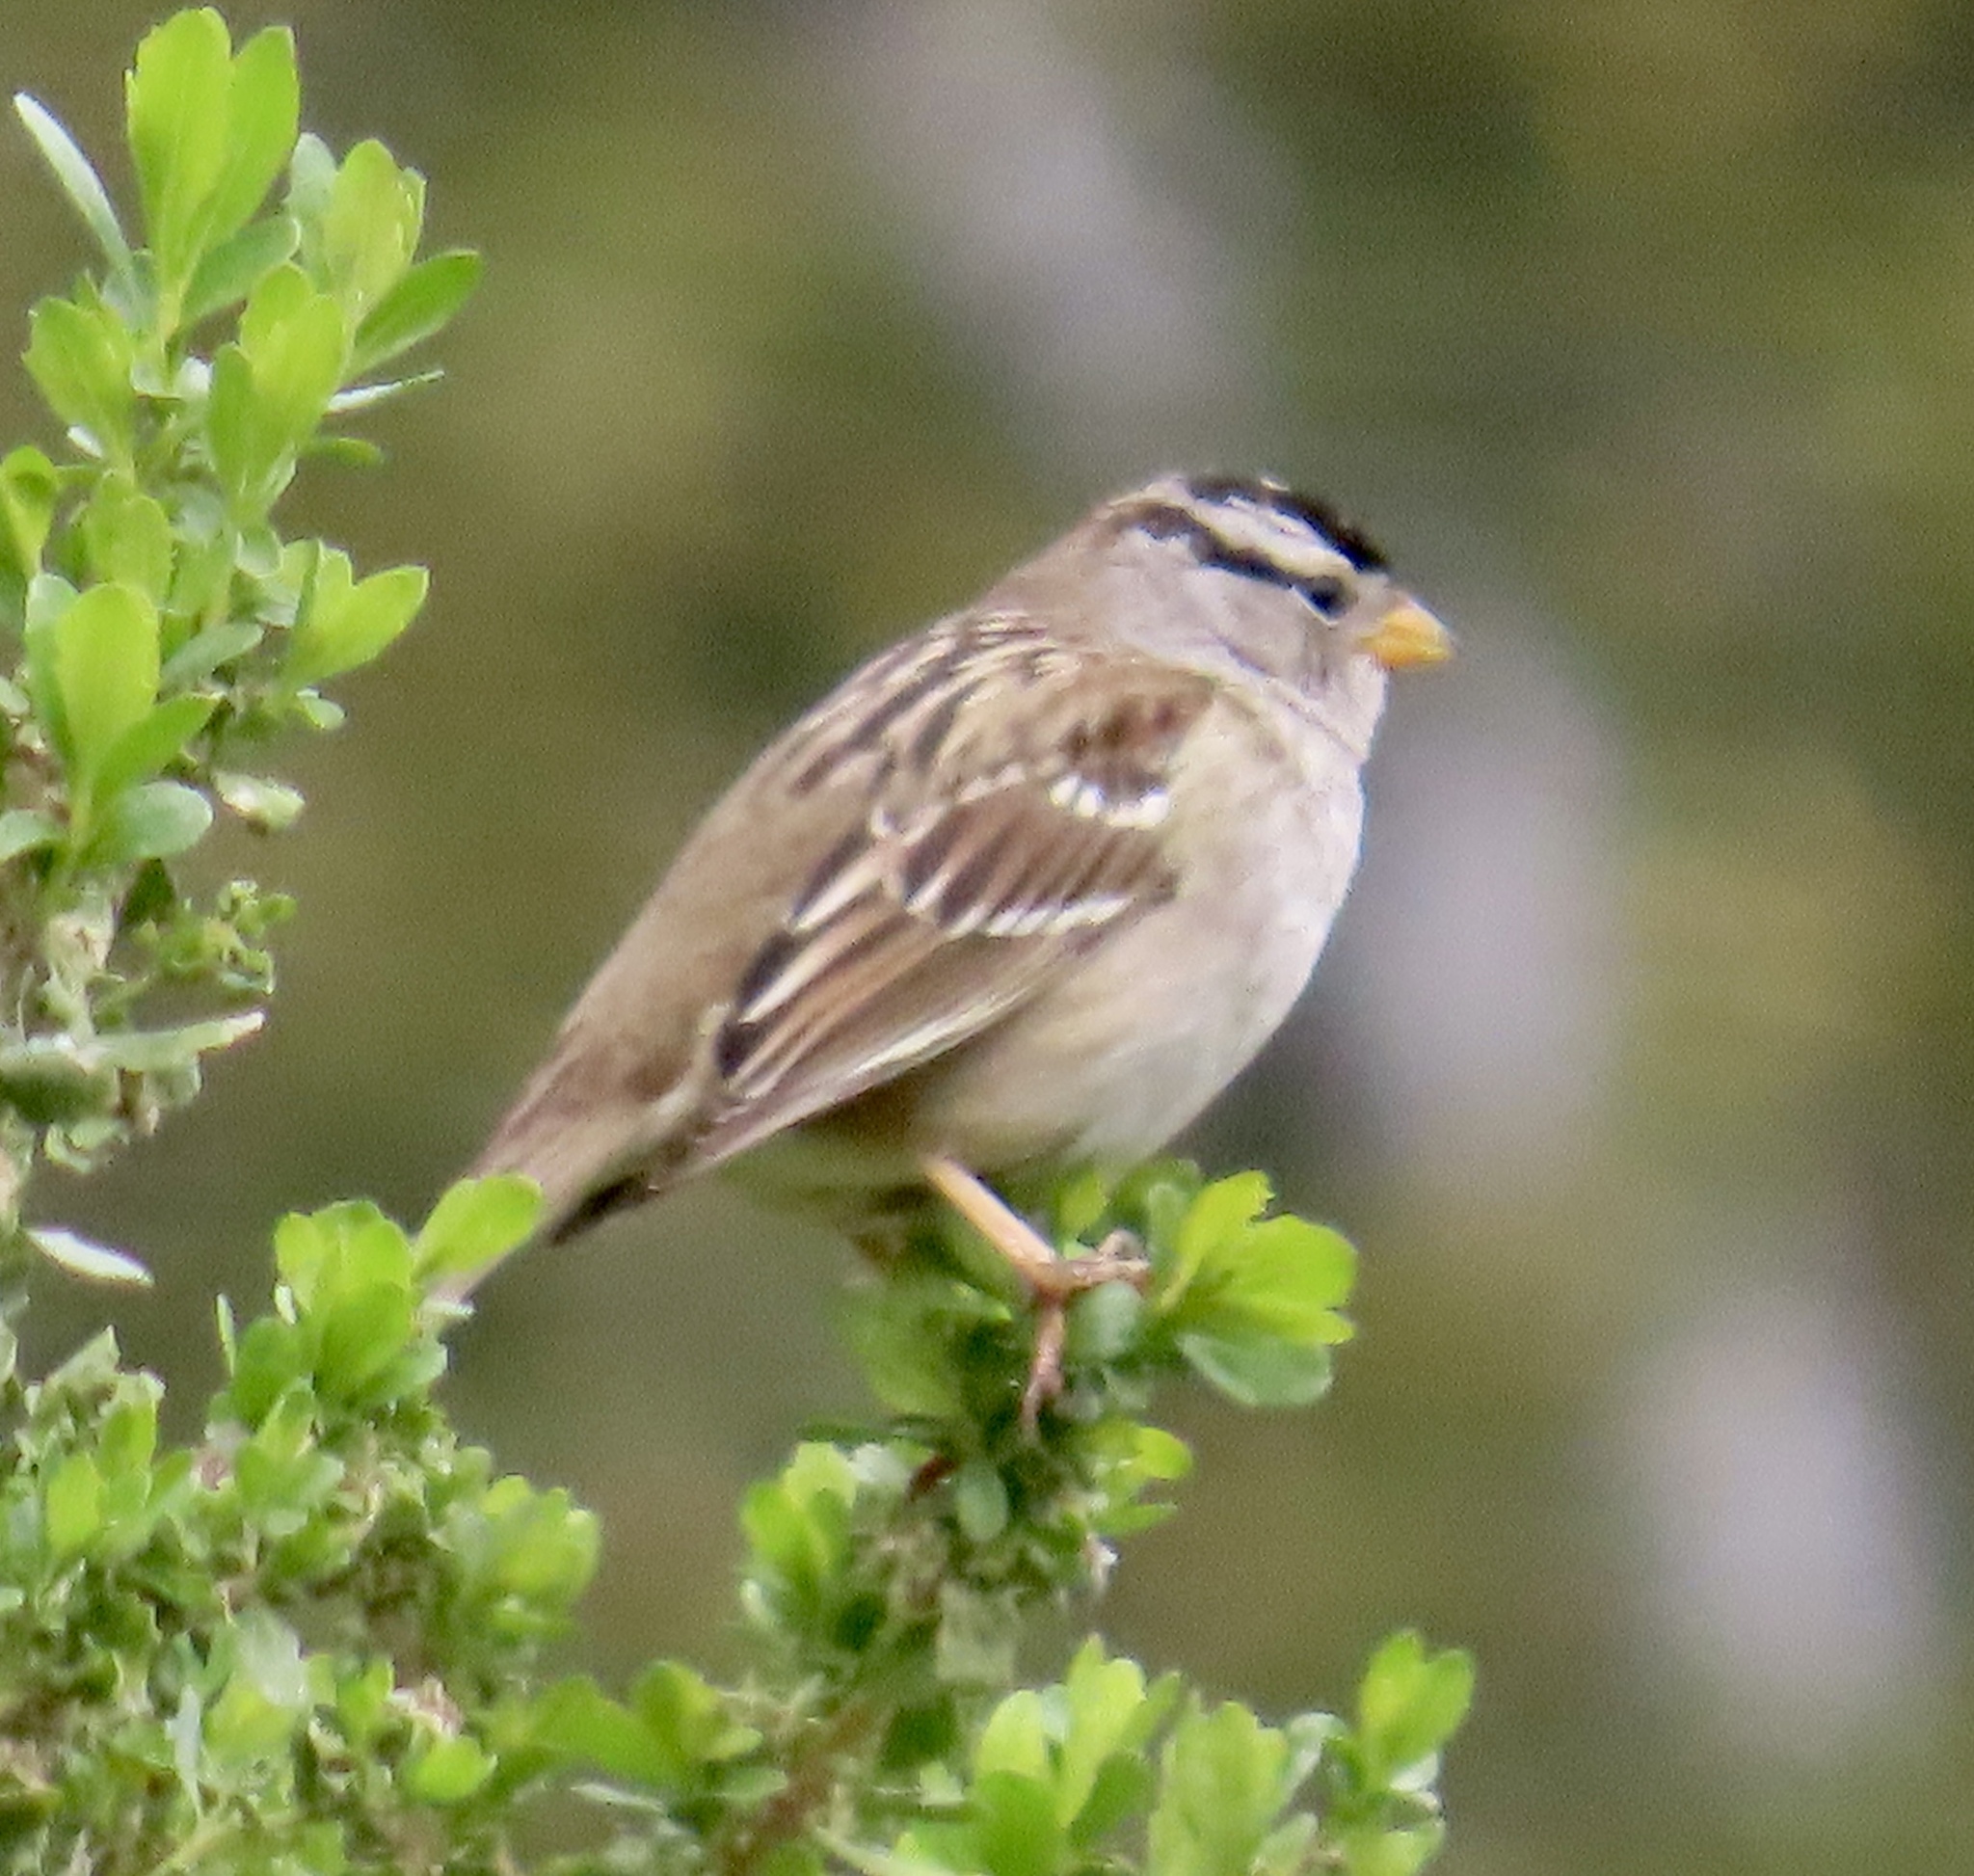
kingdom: Animalia
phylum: Chordata
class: Aves
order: Passeriformes
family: Passerellidae
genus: Zonotrichia
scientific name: Zonotrichia leucophrys
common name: White-crowned sparrow
